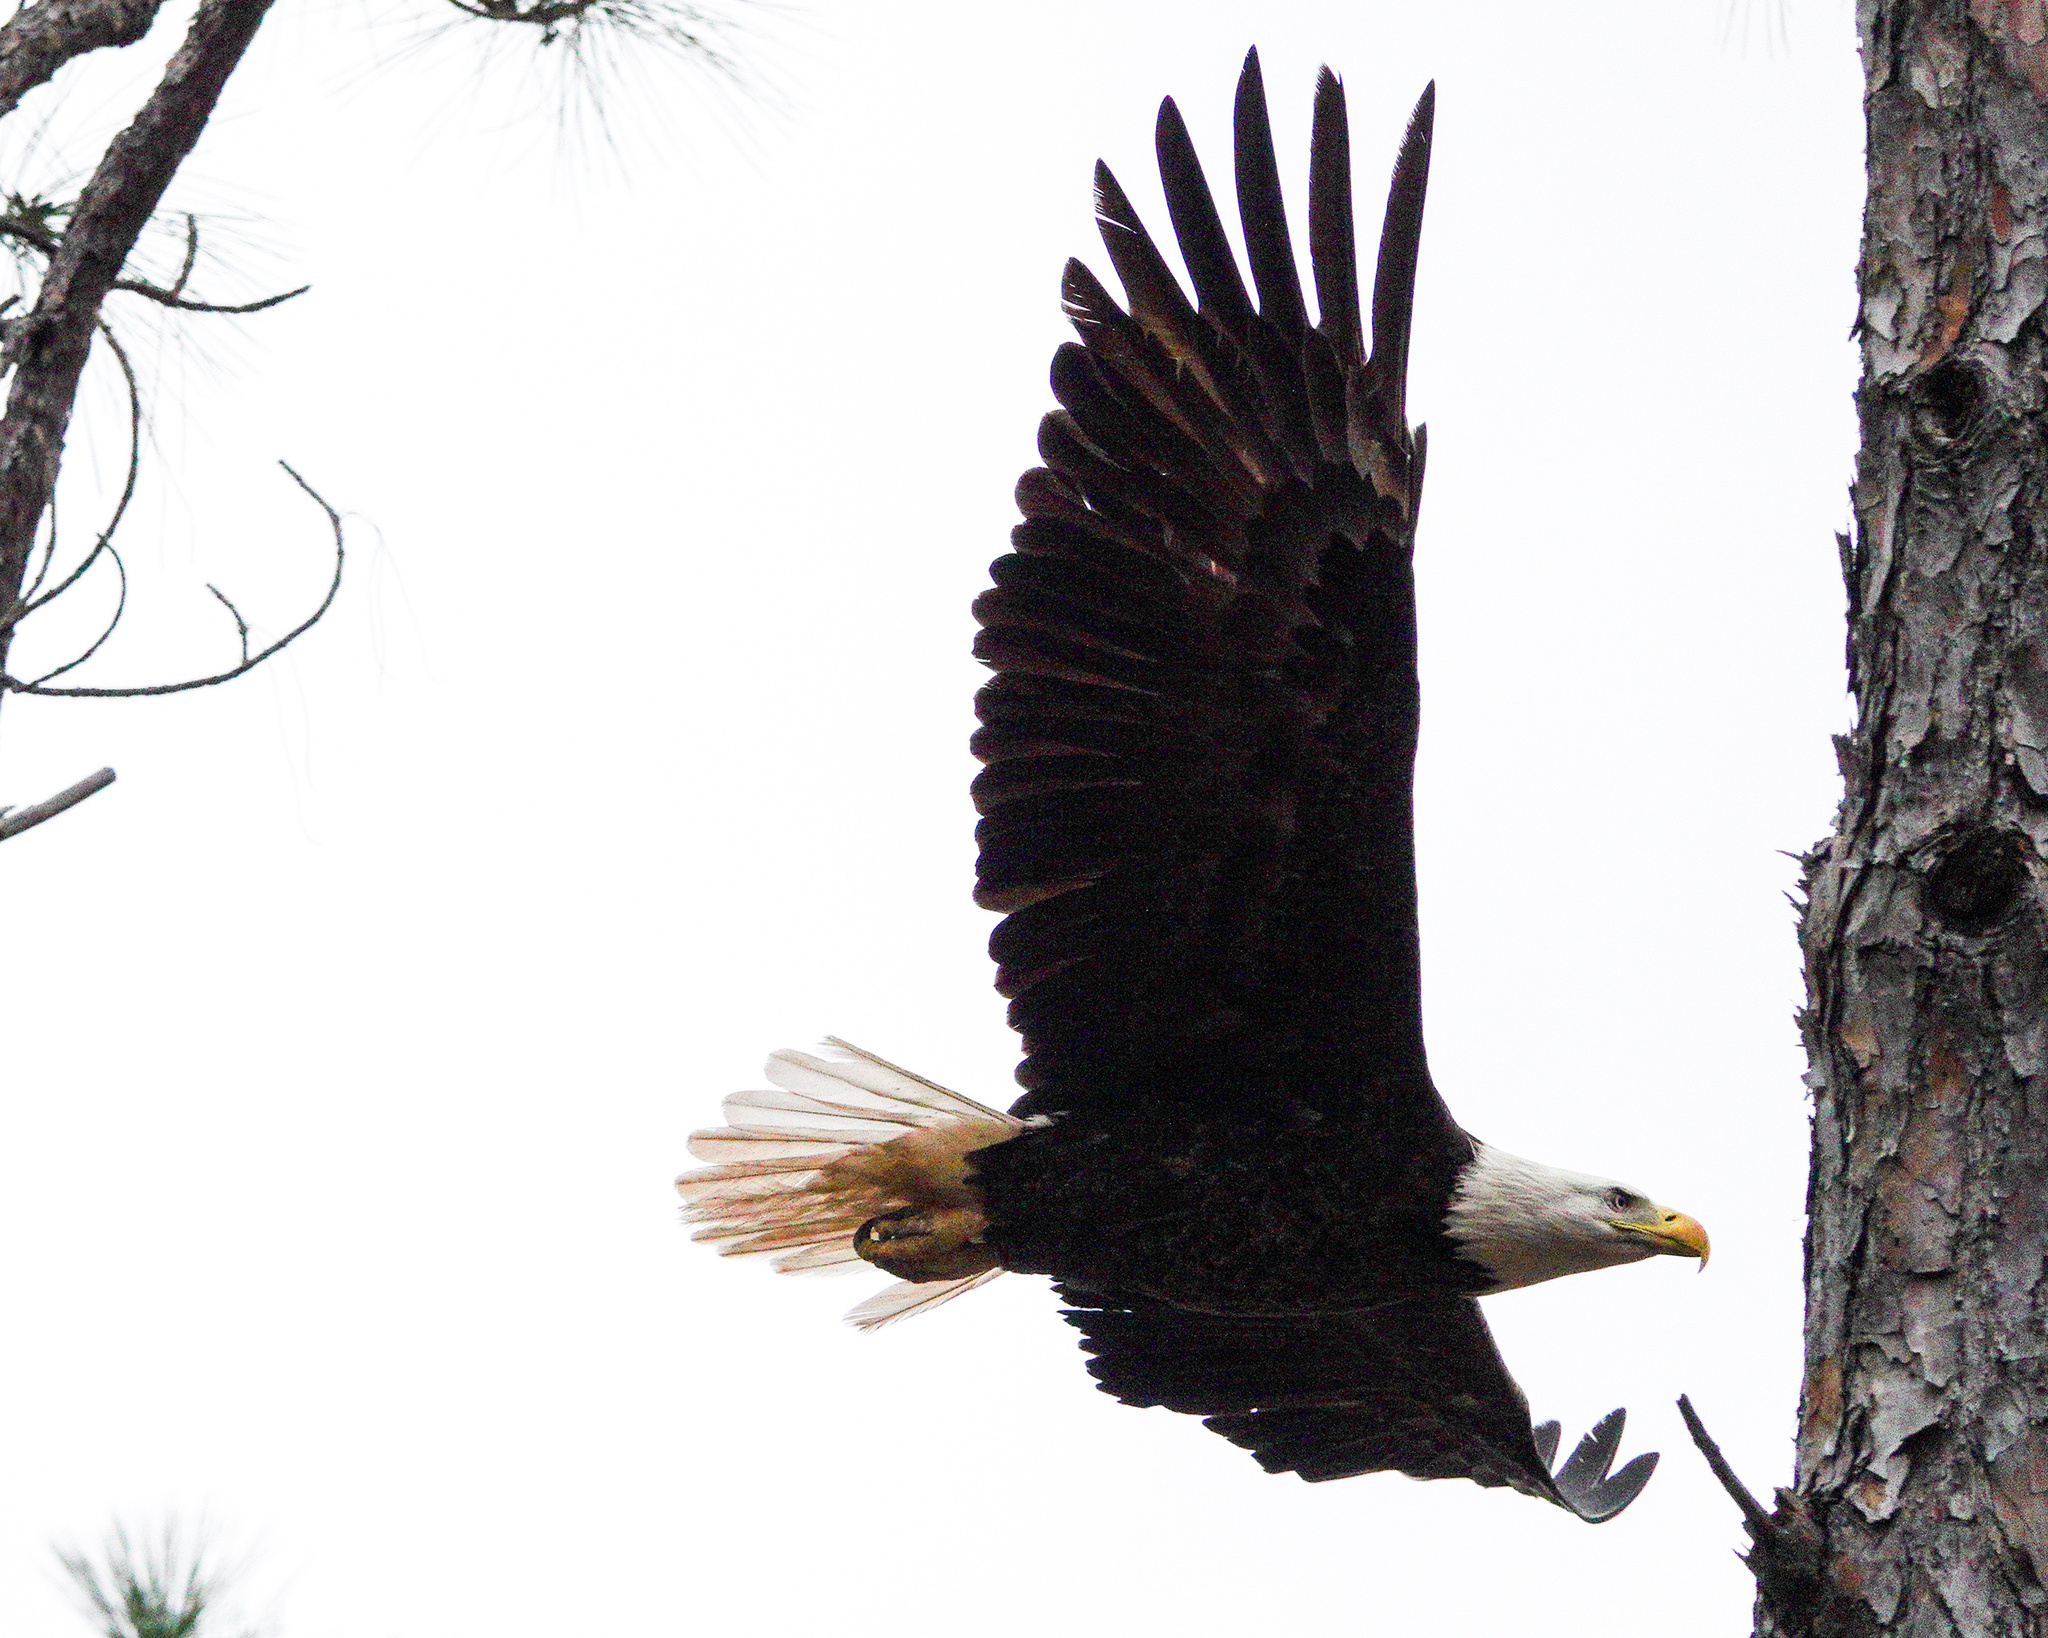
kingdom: Animalia
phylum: Chordata
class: Aves
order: Accipitriformes
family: Accipitridae
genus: Haliaeetus
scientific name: Haliaeetus leucocephalus
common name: Bald eagle
